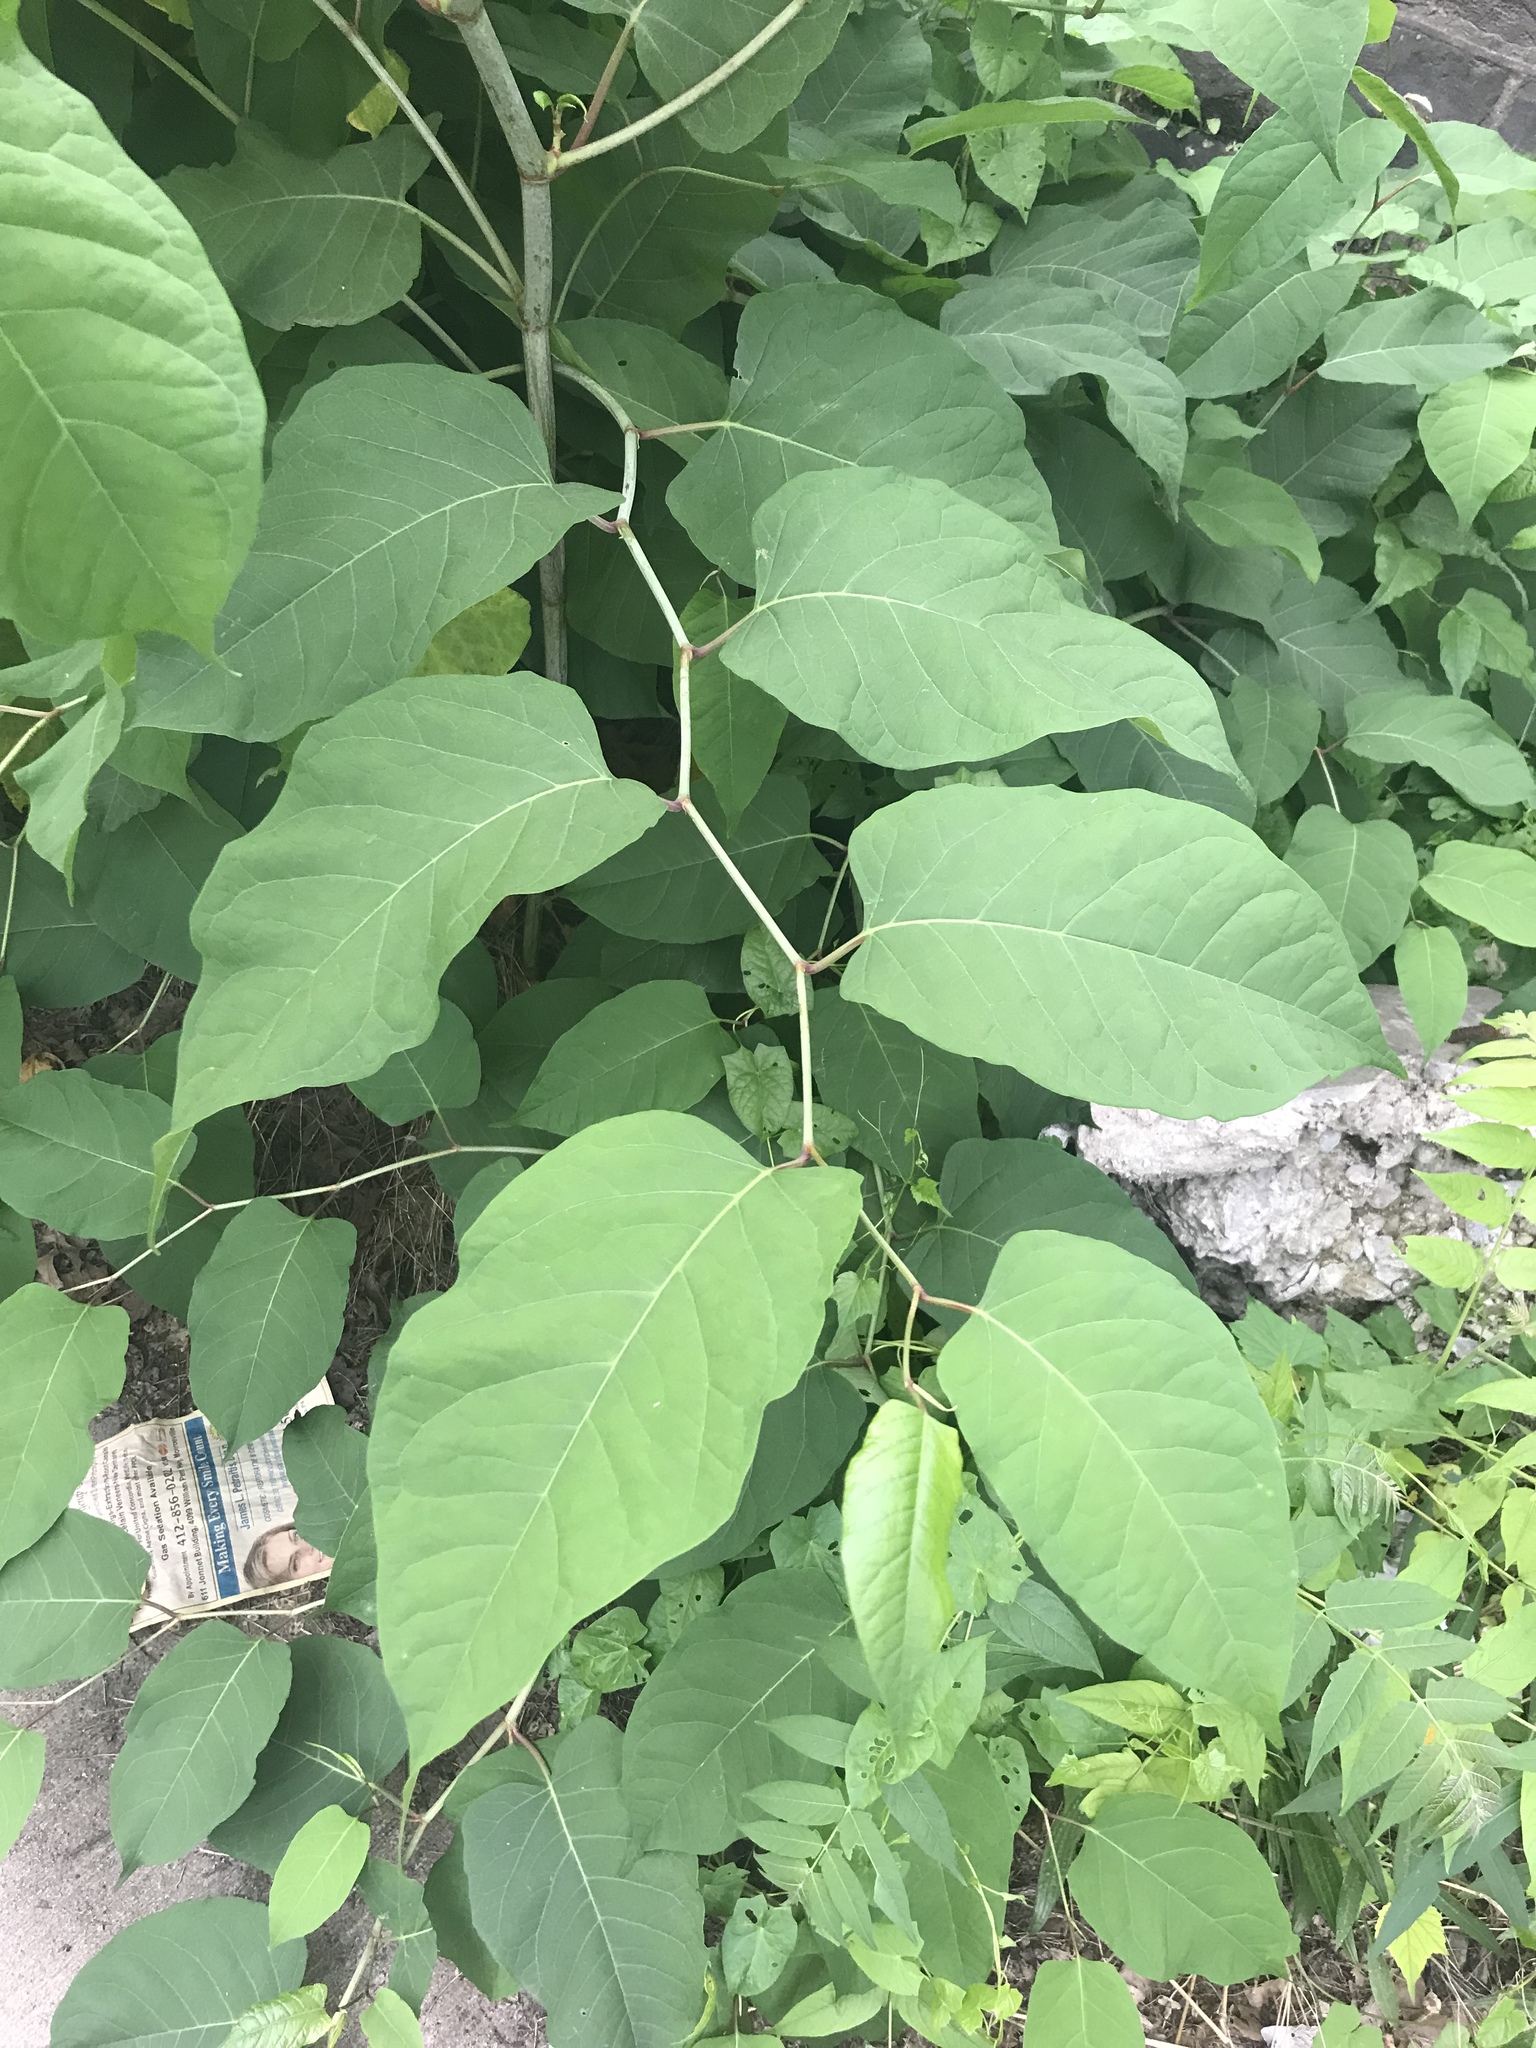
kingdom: Plantae
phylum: Tracheophyta
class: Magnoliopsida
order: Caryophyllales
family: Polygonaceae
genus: Reynoutria
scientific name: Reynoutria japonica
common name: Japanese knotweed
